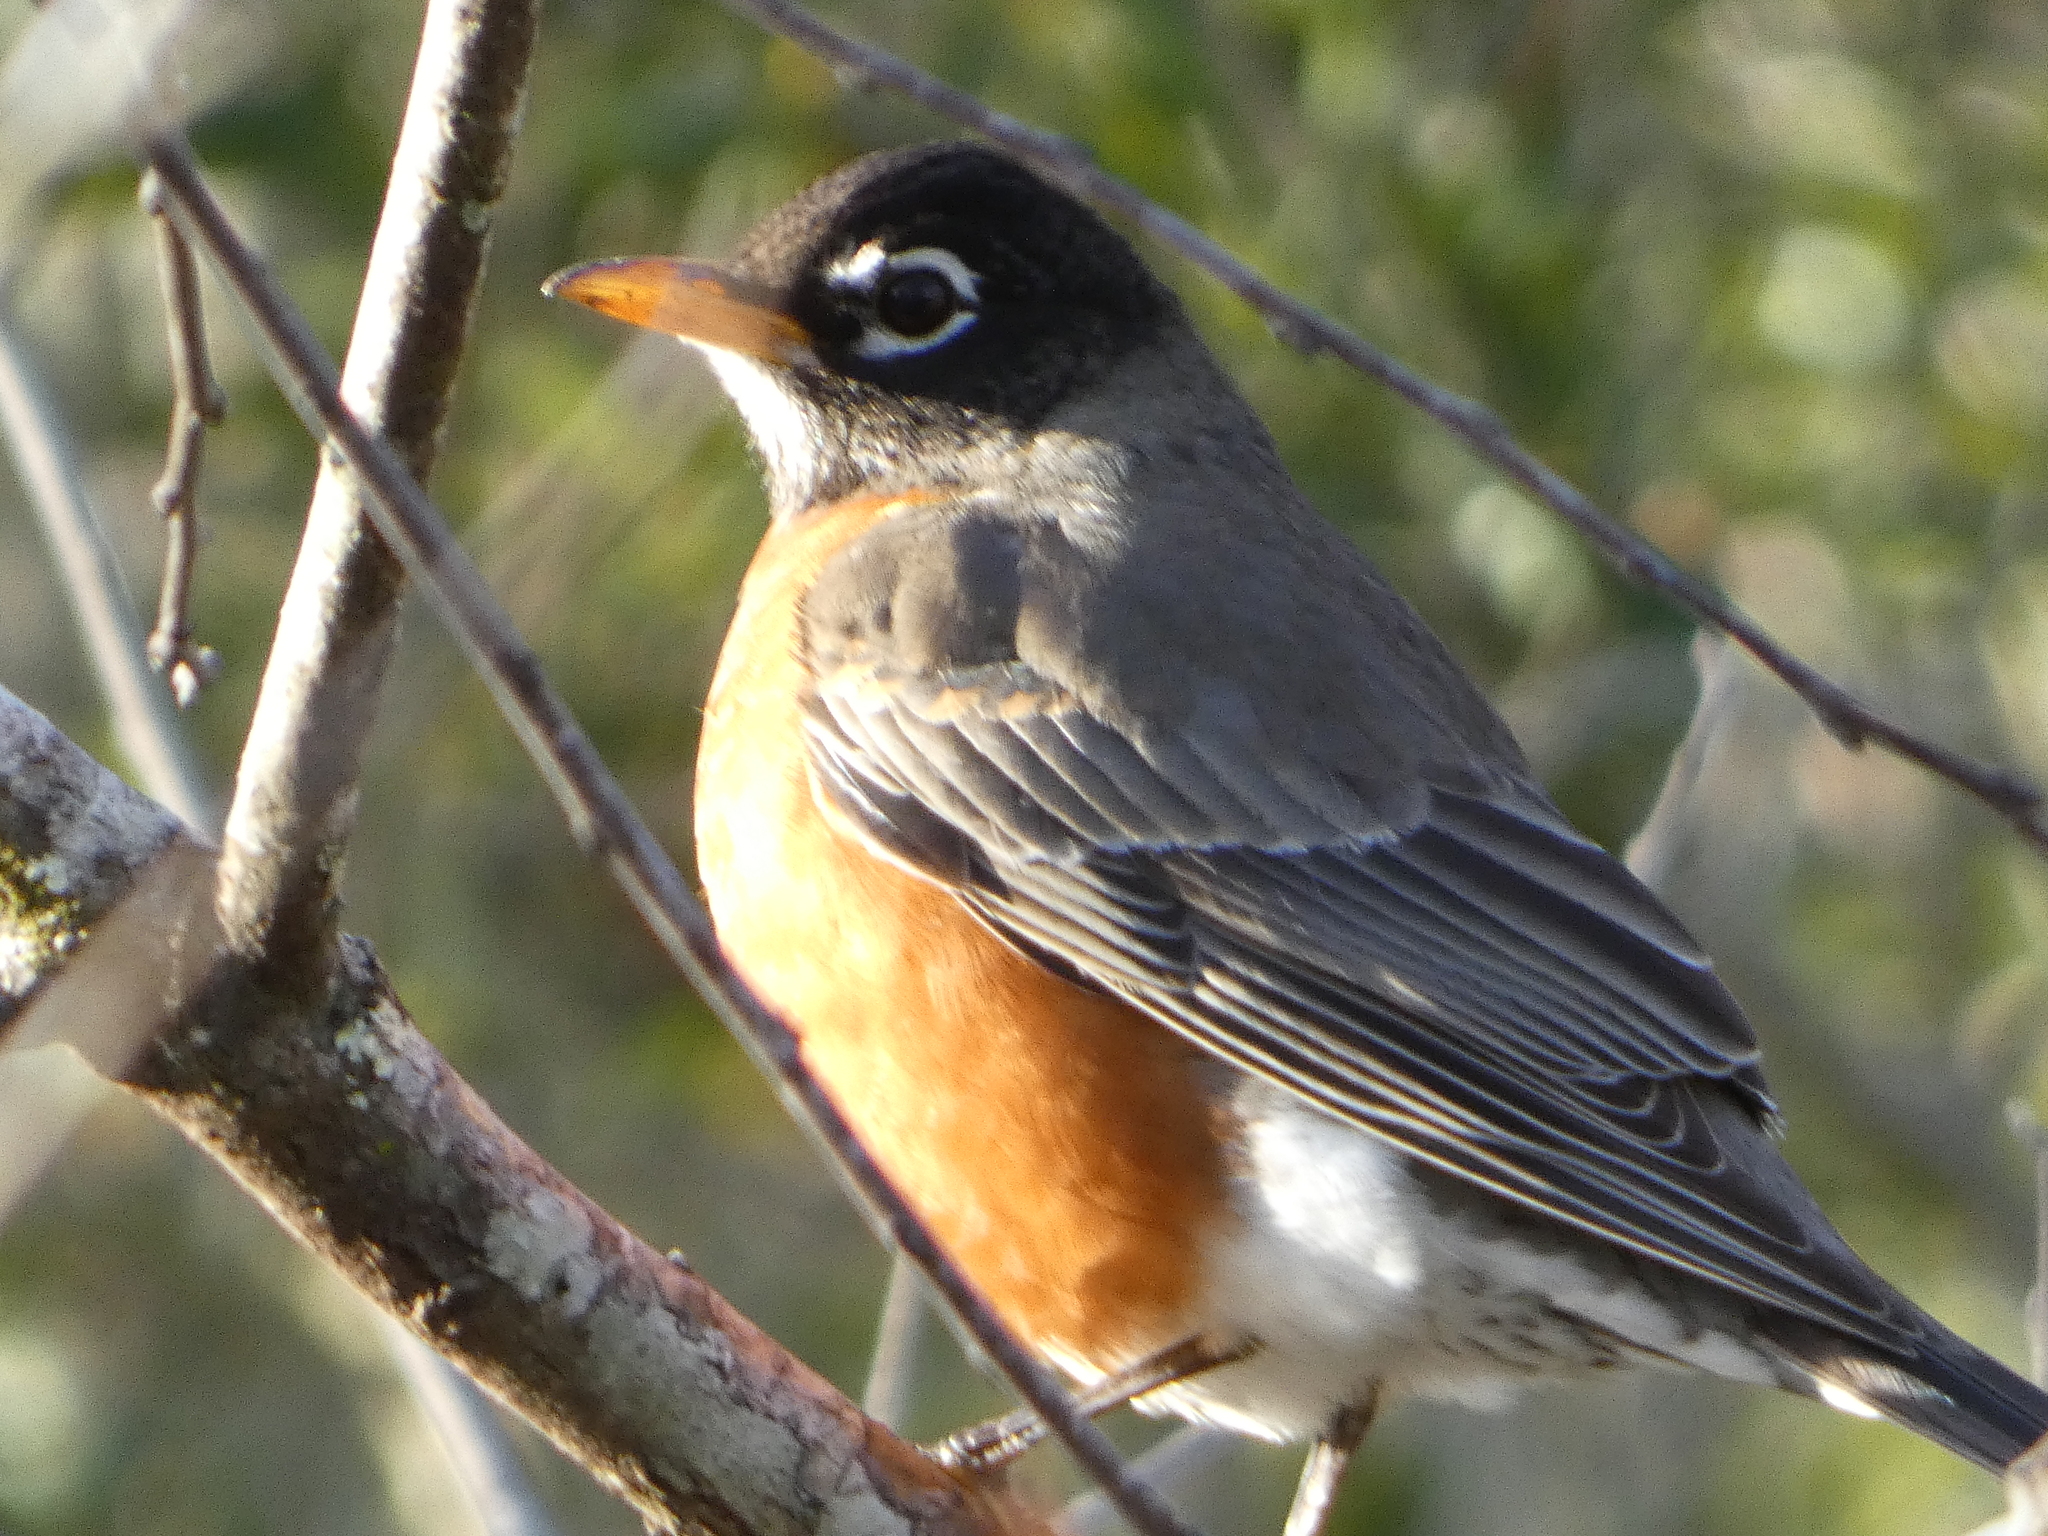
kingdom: Animalia
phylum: Chordata
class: Aves
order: Passeriformes
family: Turdidae
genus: Turdus
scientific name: Turdus migratorius
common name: American robin
